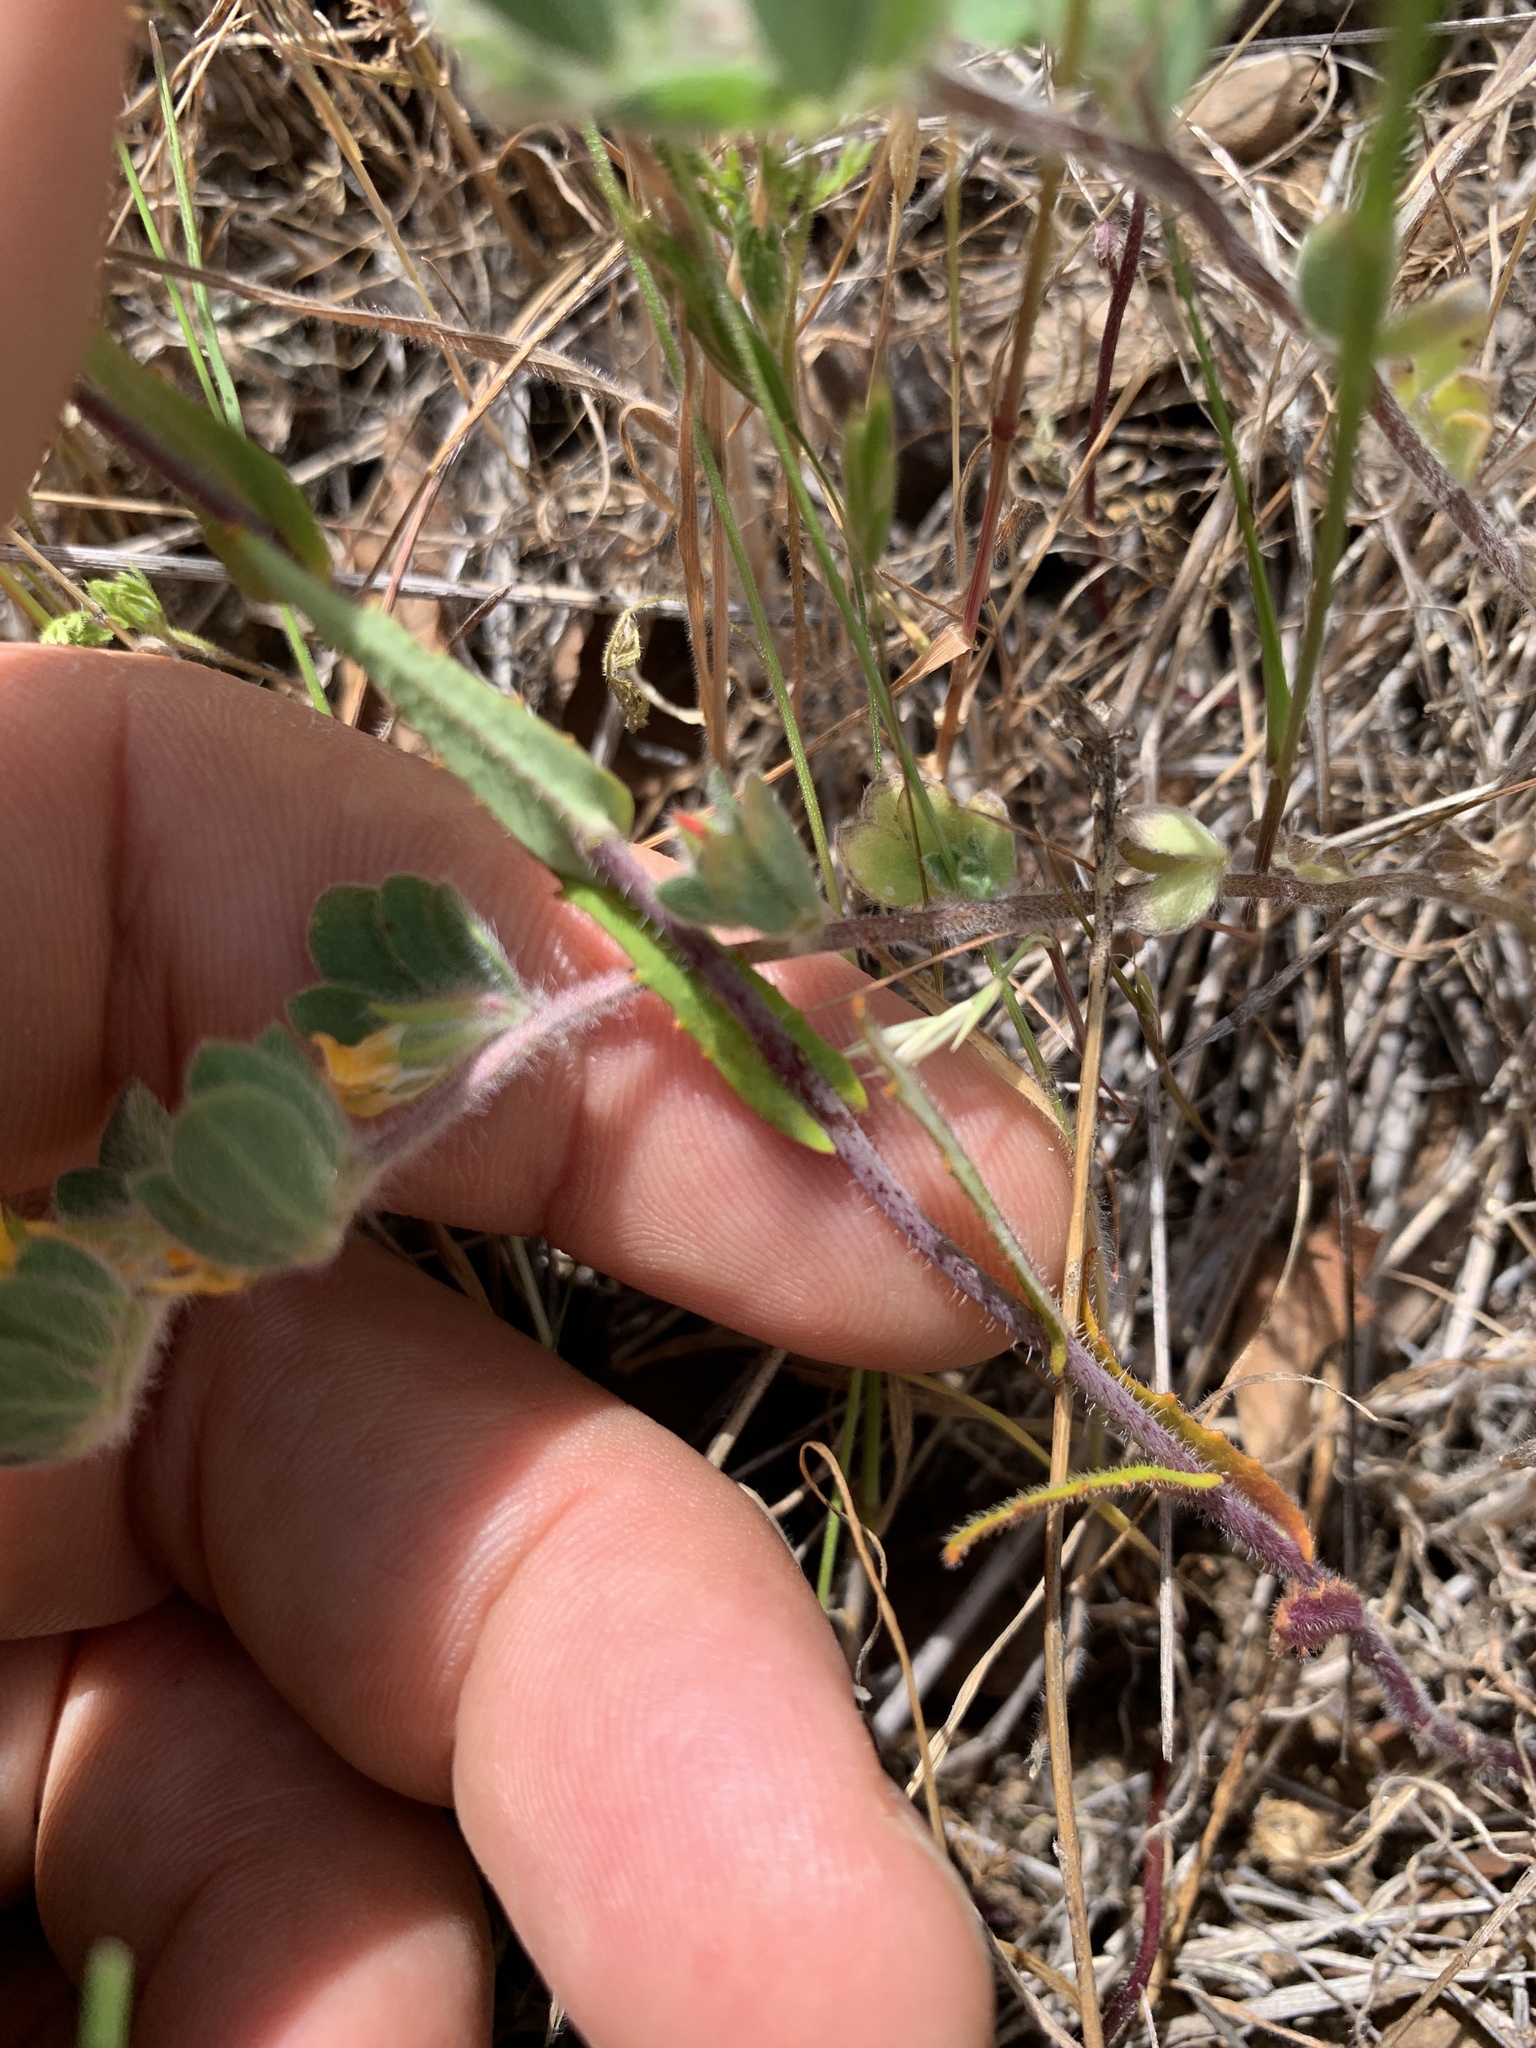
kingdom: Plantae
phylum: Tracheophyta
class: Magnoliopsida
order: Brassicales
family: Brassicaceae
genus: Streptanthus
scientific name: Streptanthus glandulosus
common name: Jewel-flower
